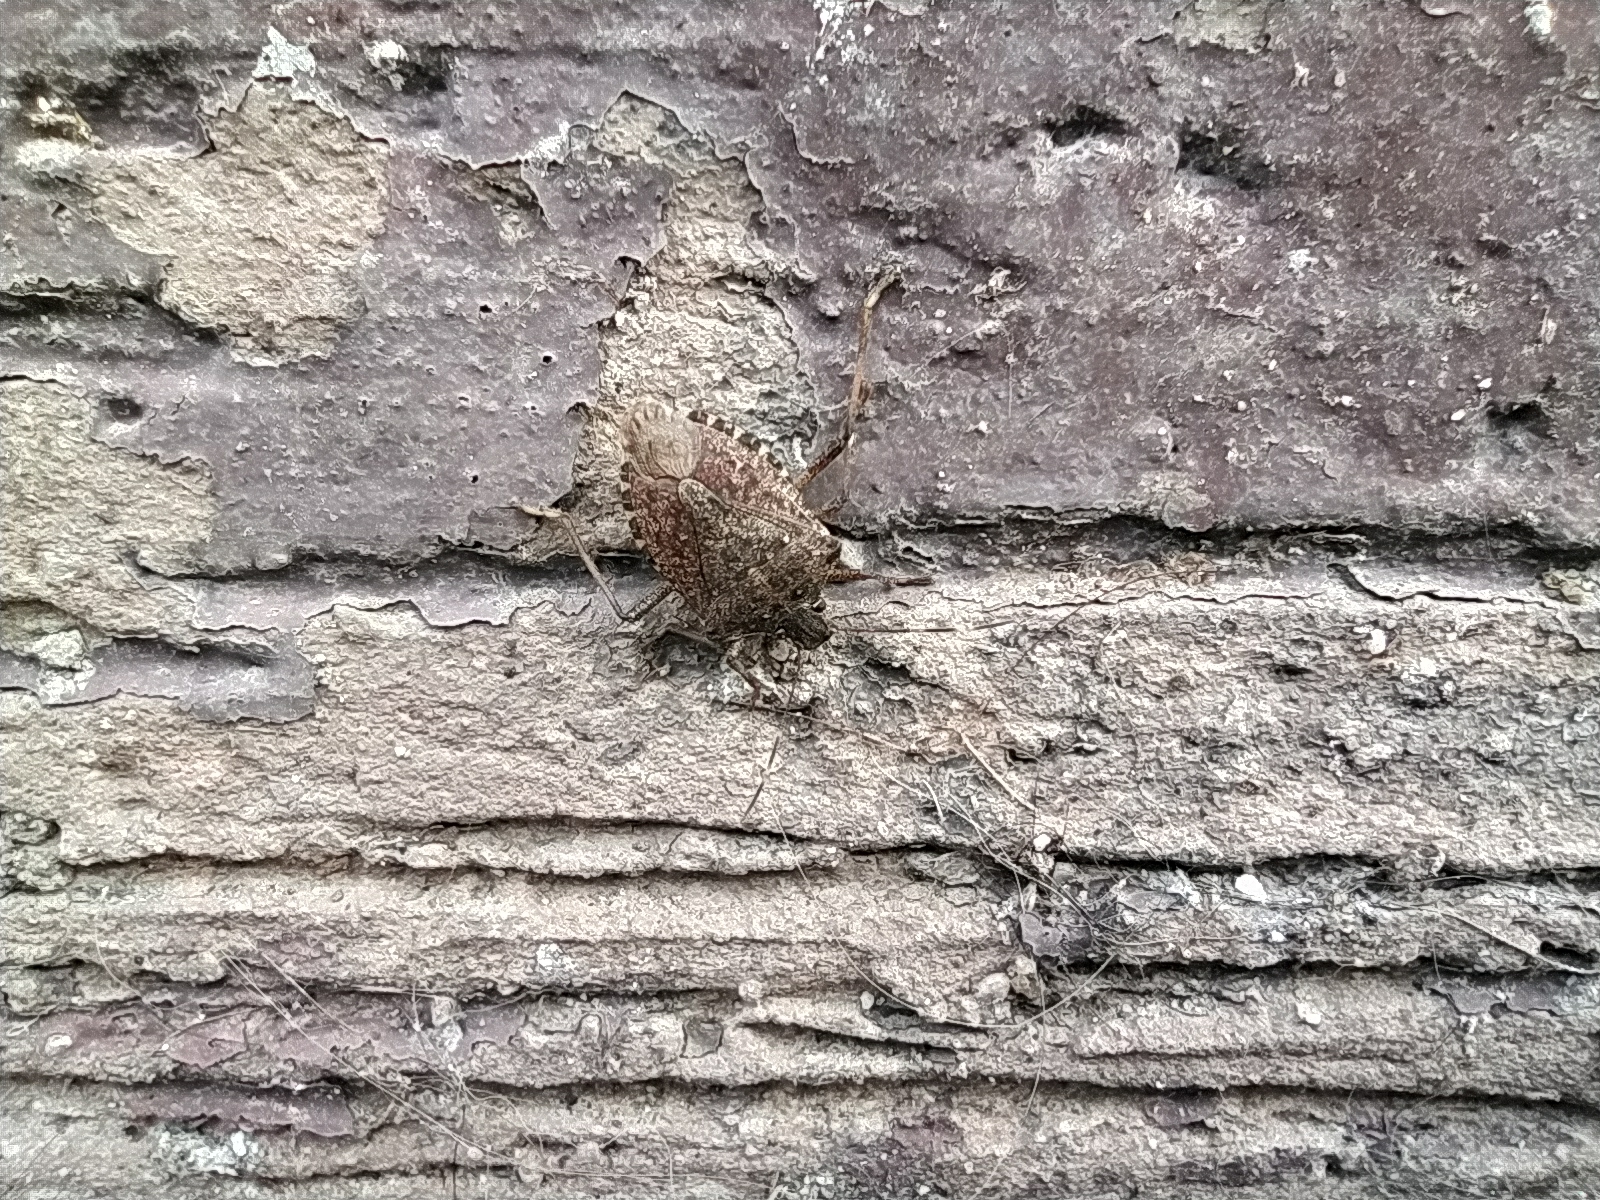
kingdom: Animalia
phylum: Arthropoda
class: Insecta
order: Hemiptera
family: Pentatomidae
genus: Halyomorpha
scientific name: Halyomorpha halys
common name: Brown marmorated stink bug
